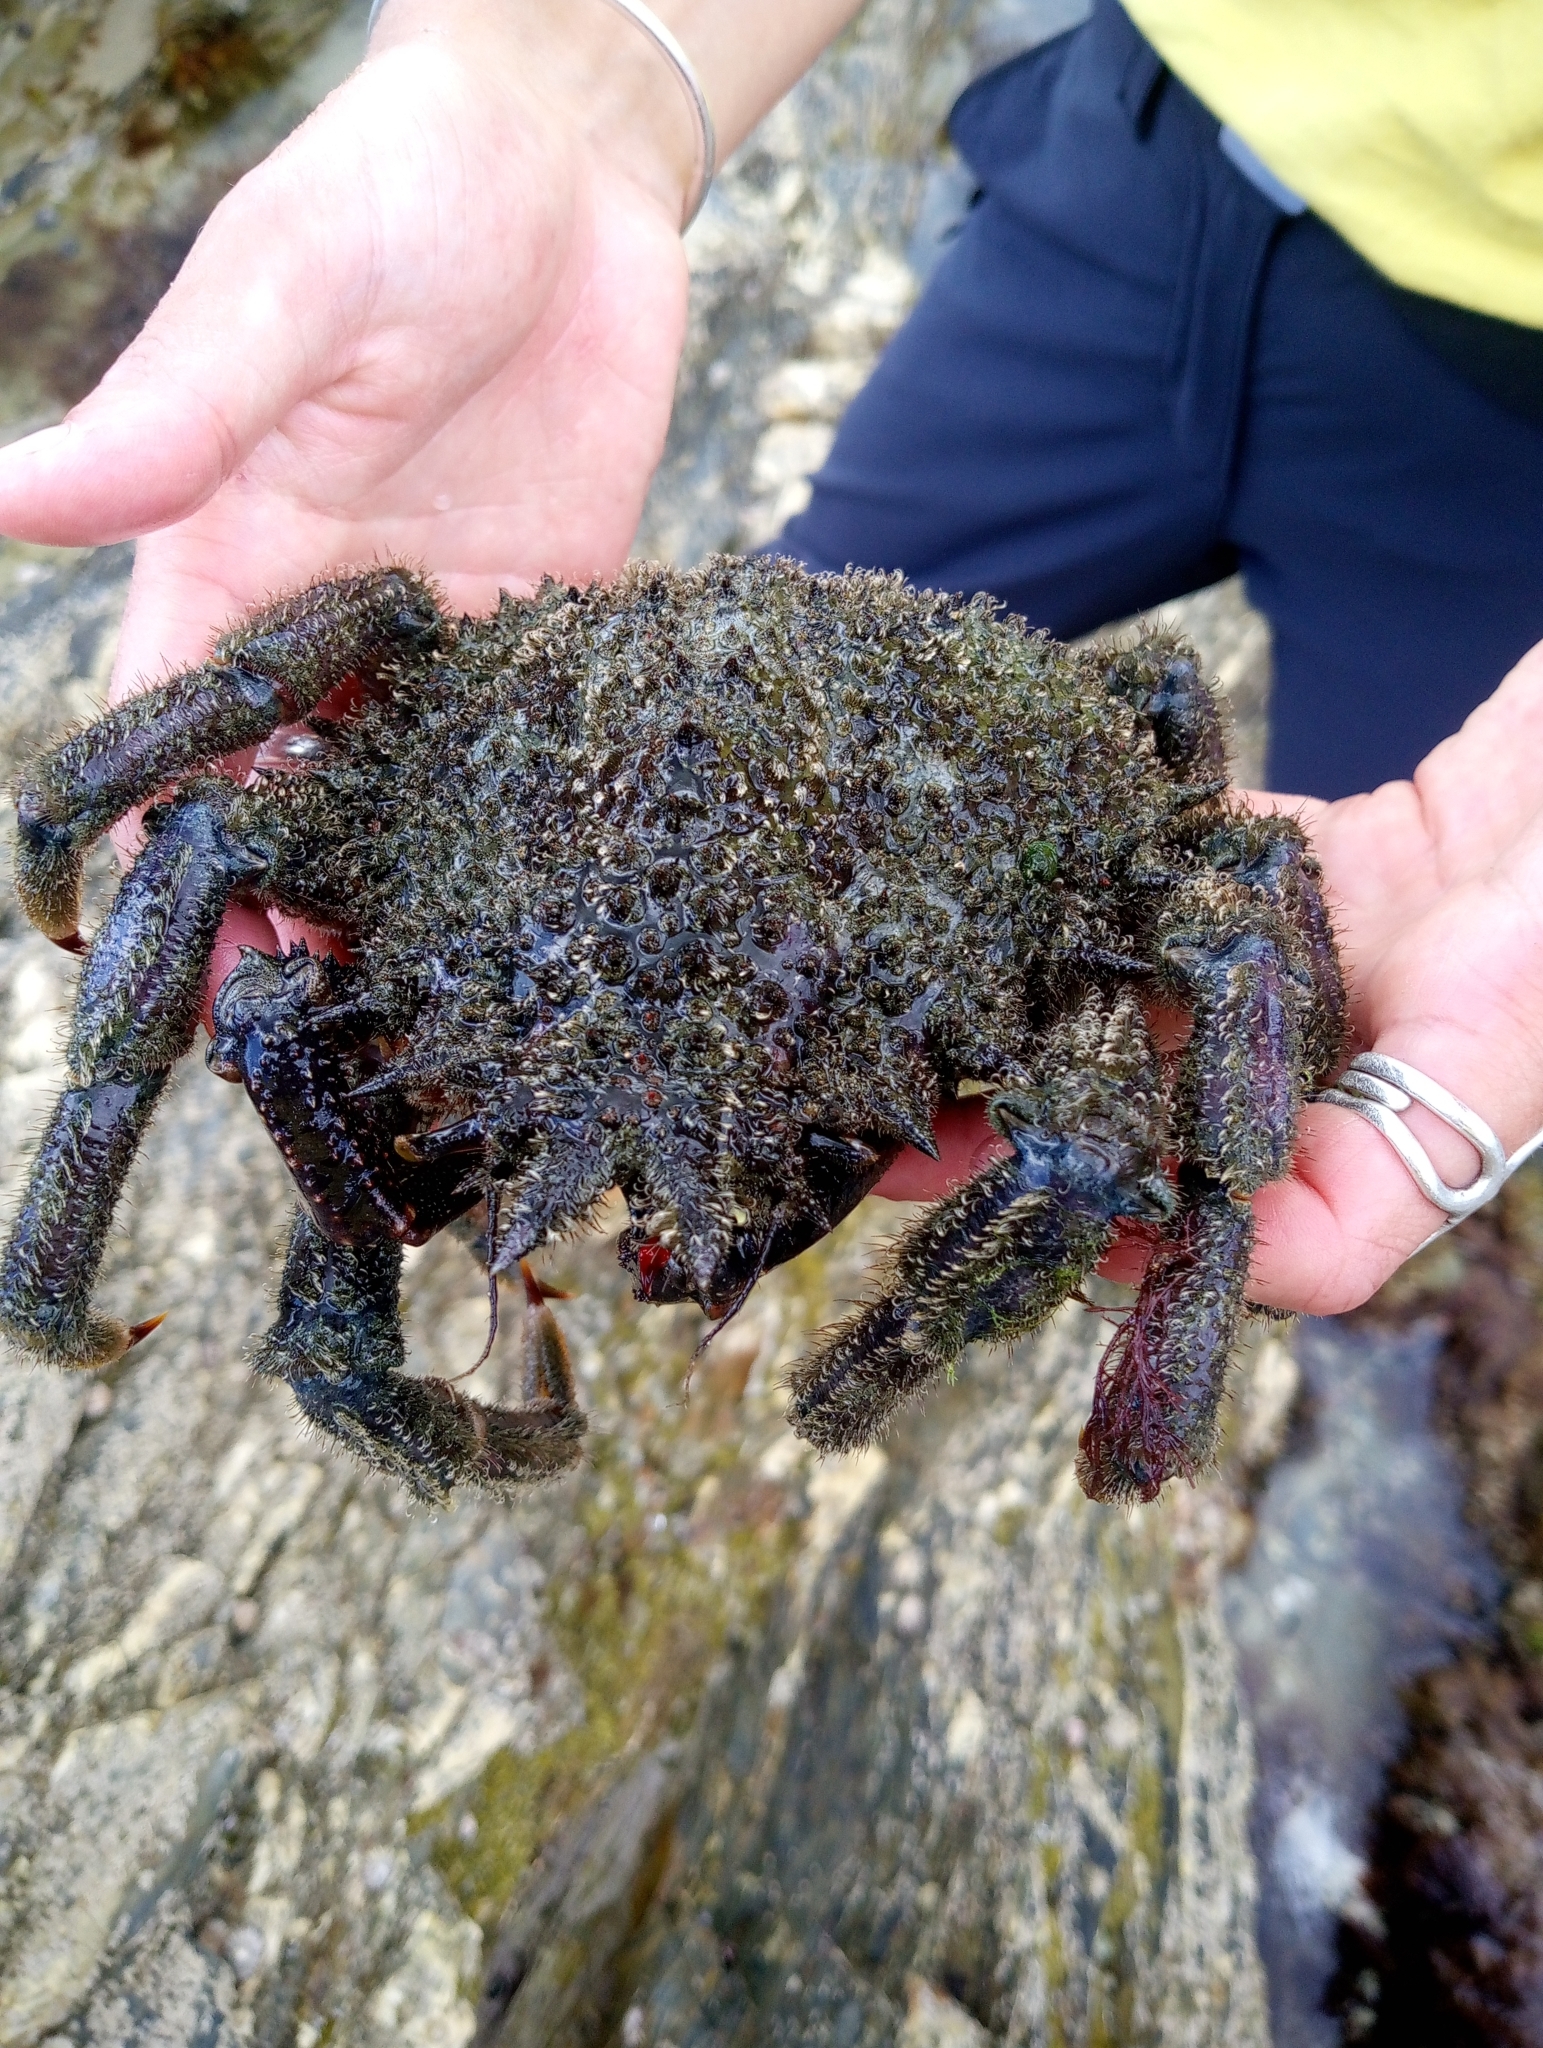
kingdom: Animalia
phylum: Arthropoda
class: Malacostraca
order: Decapoda
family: Majidae
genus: Maja
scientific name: Maja brachydactyla
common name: Common spider crab
